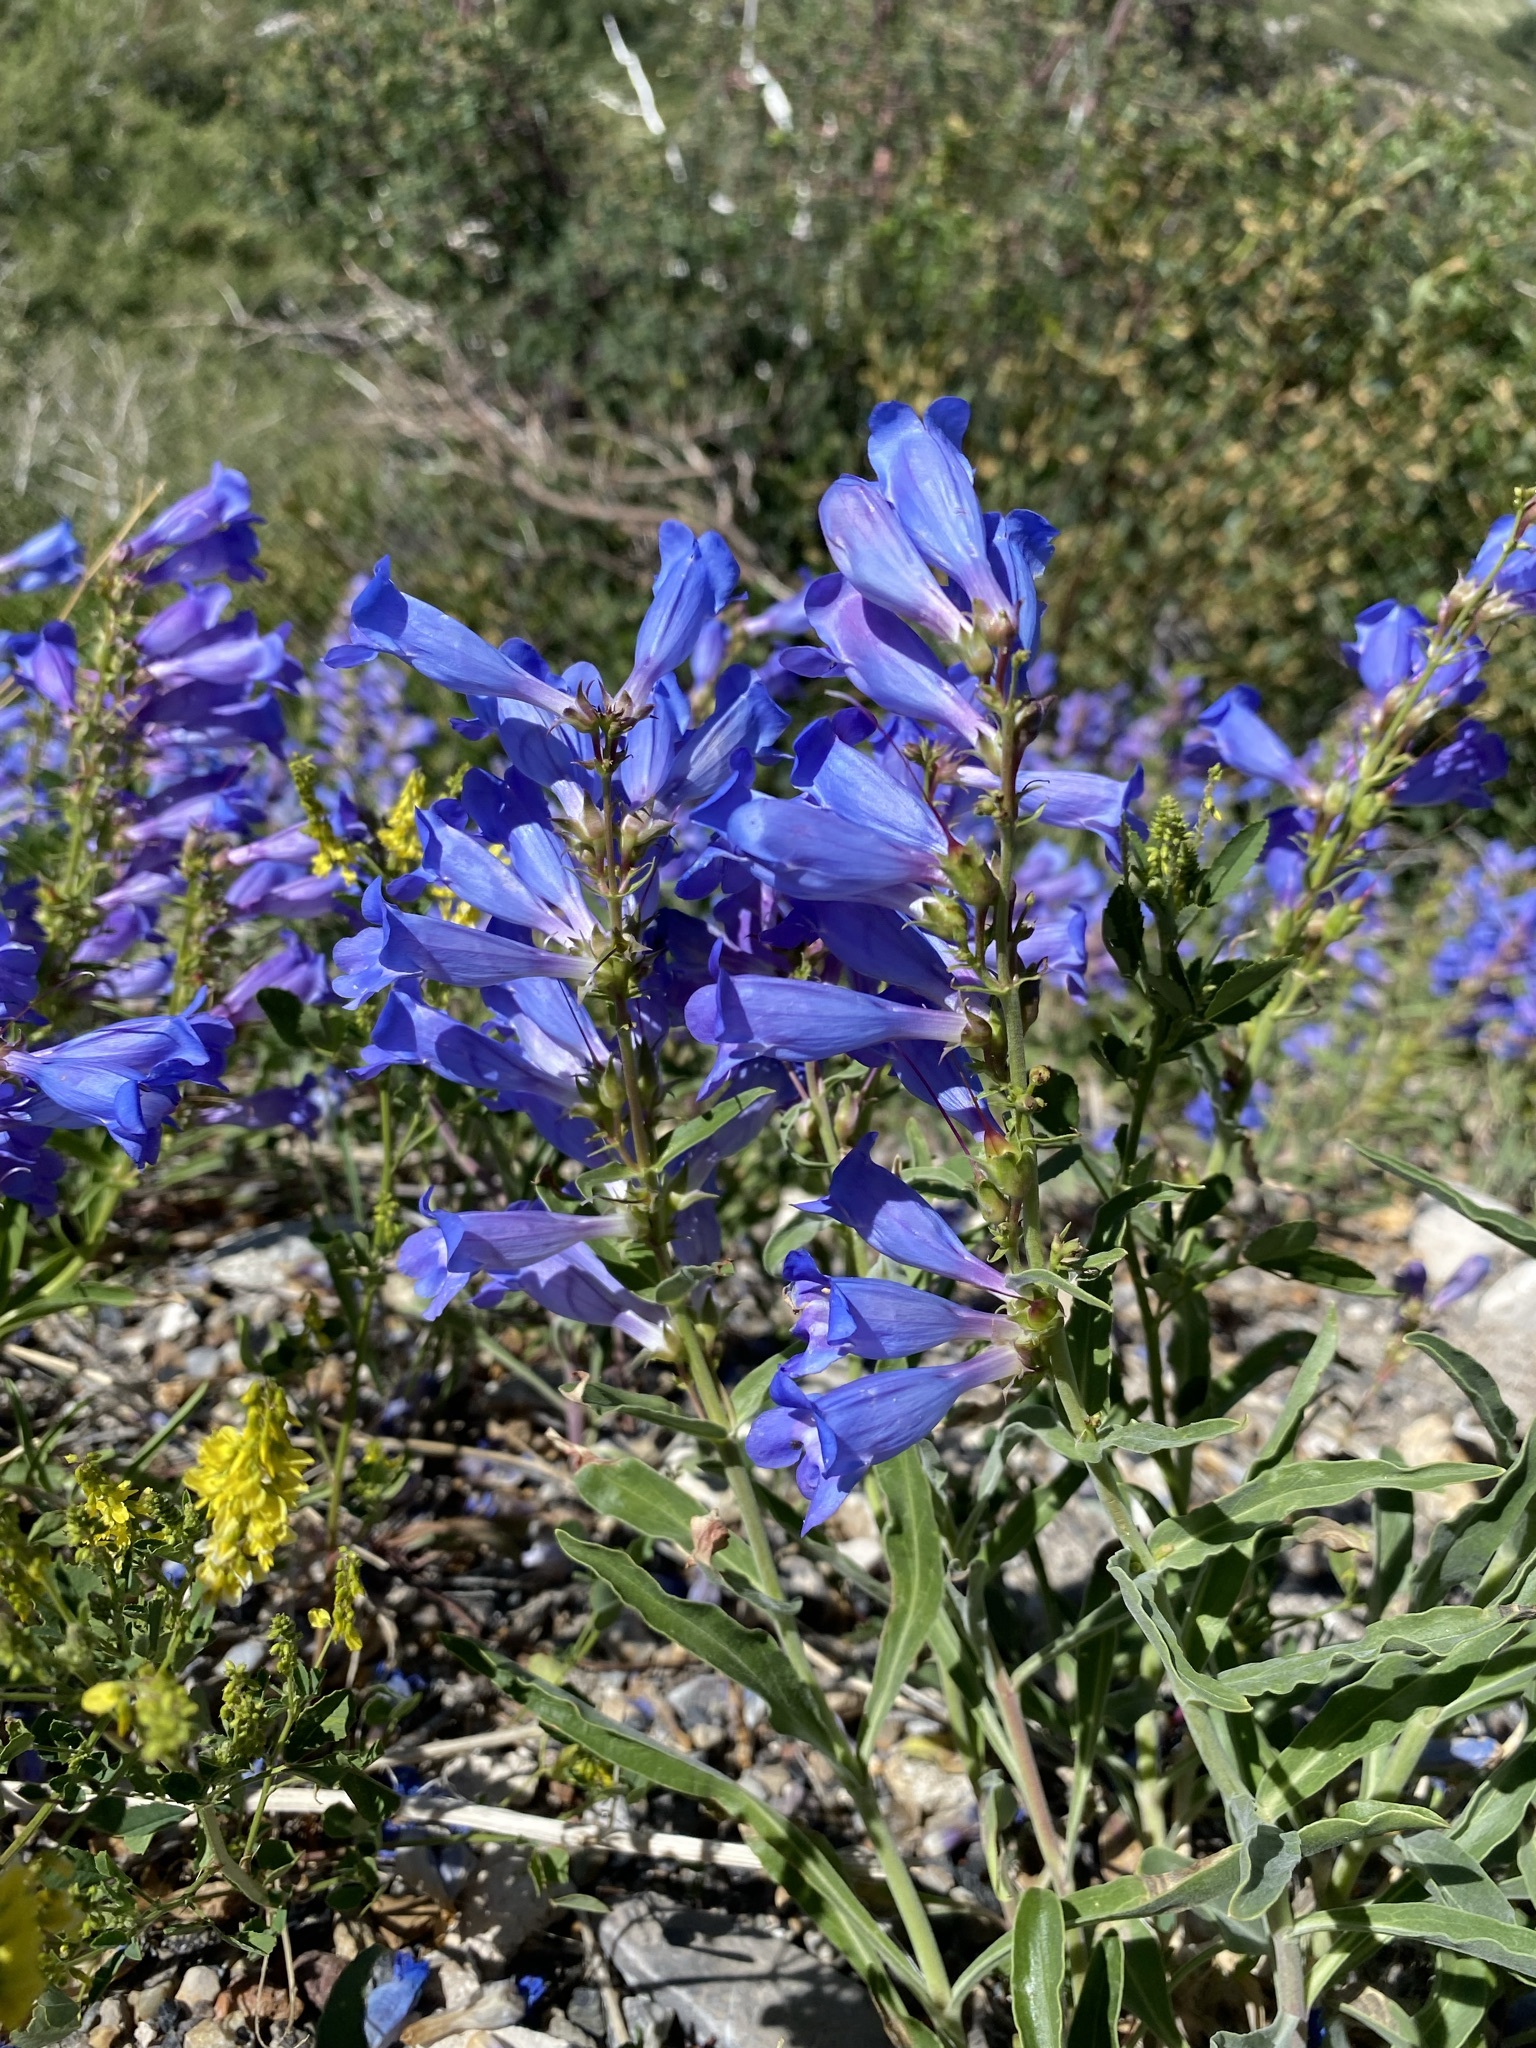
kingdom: Plantae
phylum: Tracheophyta
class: Magnoliopsida
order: Lamiales
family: Plantaginaceae
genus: Penstemon
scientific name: Penstemon speciosus
